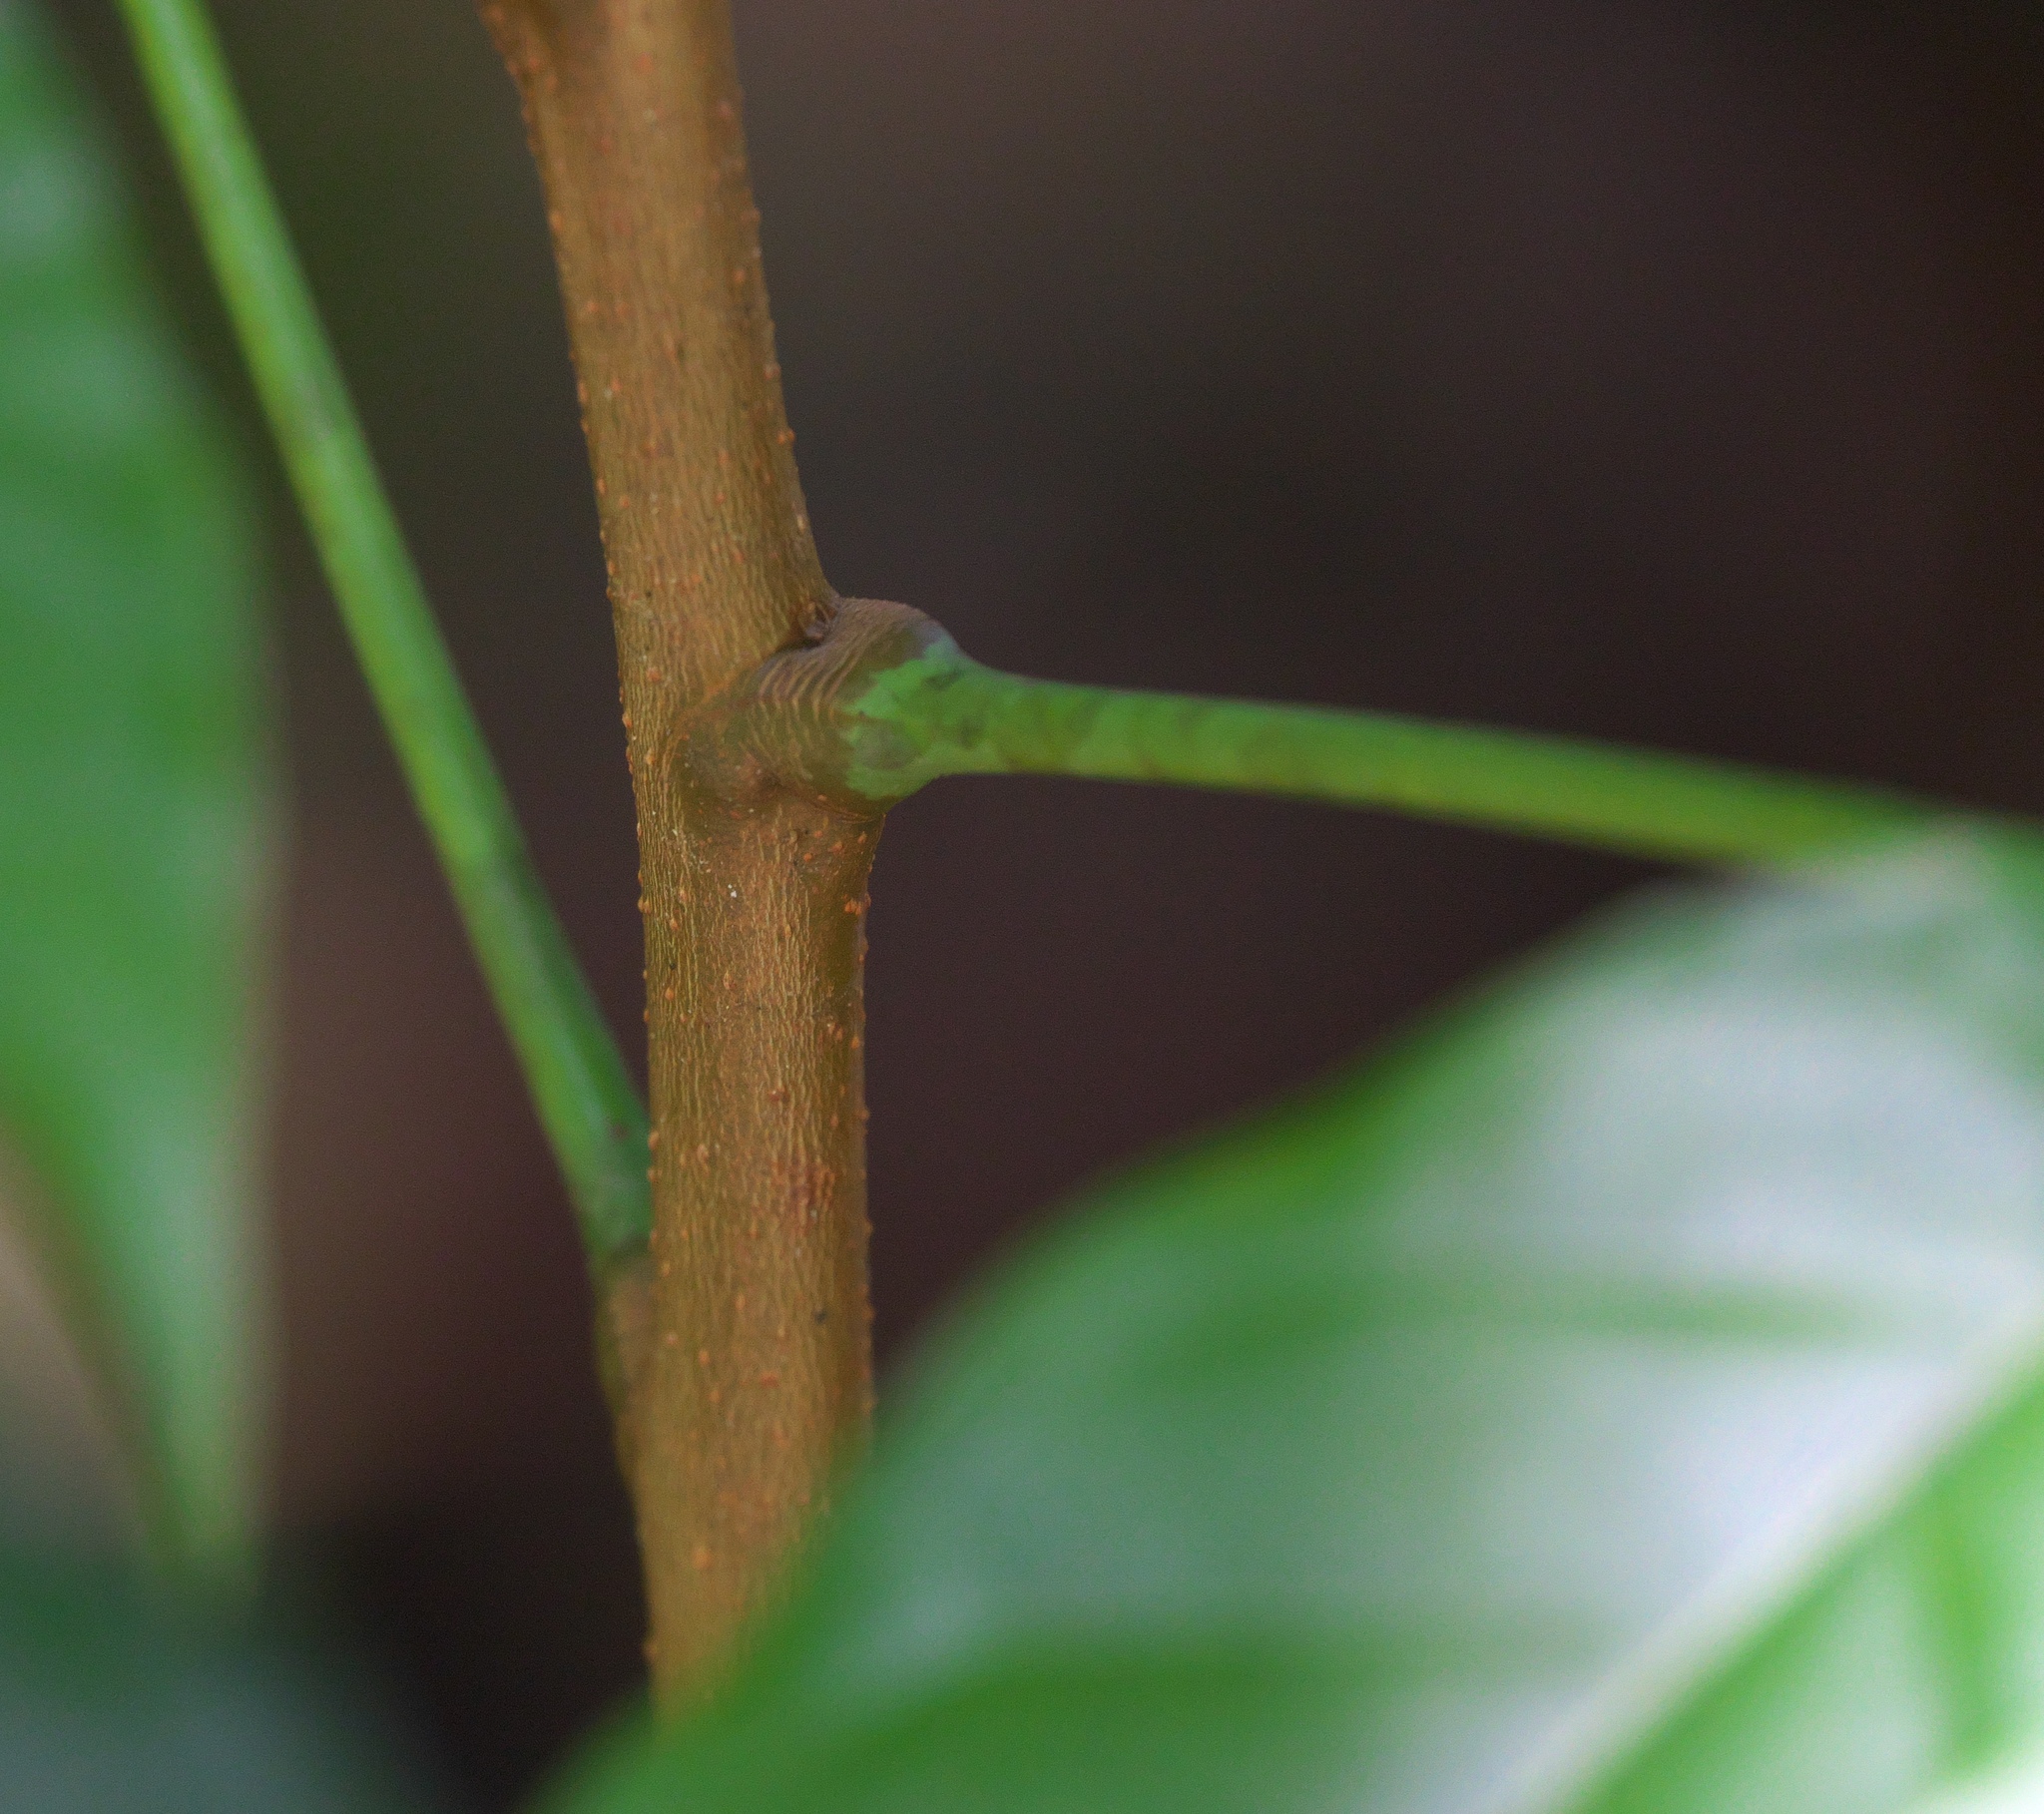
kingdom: Plantae
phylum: Tracheophyta
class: Magnoliopsida
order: Sapindales
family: Sapindaceae
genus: Pometia
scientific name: Pometia pinnata
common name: Oceanic lychee
